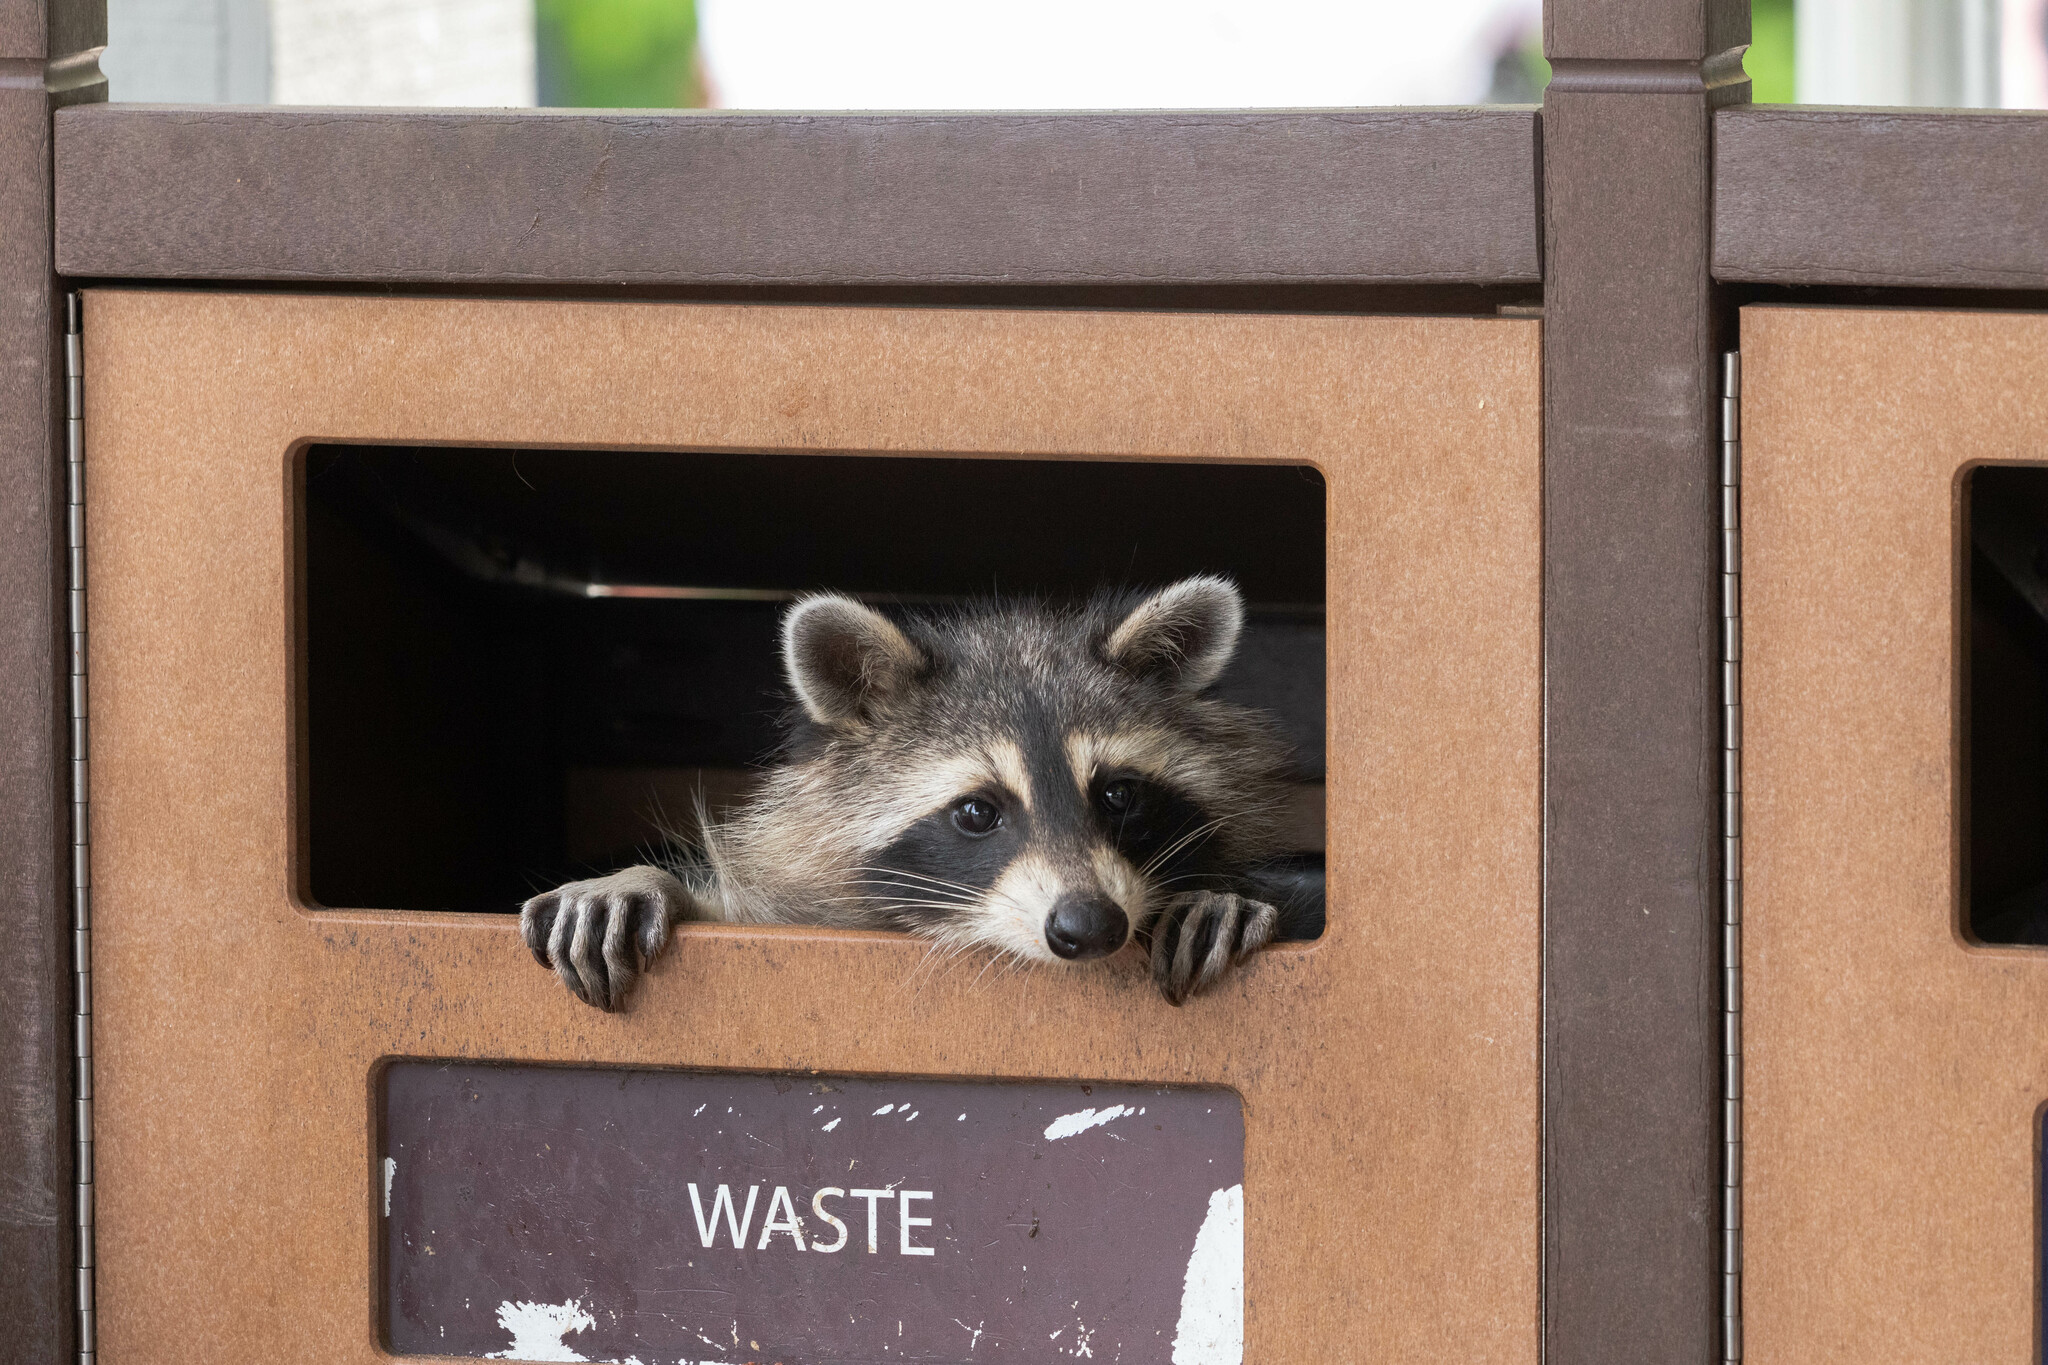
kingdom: Animalia
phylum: Chordata
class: Mammalia
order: Carnivora
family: Procyonidae
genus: Procyon
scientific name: Procyon lotor
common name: Raccoon
